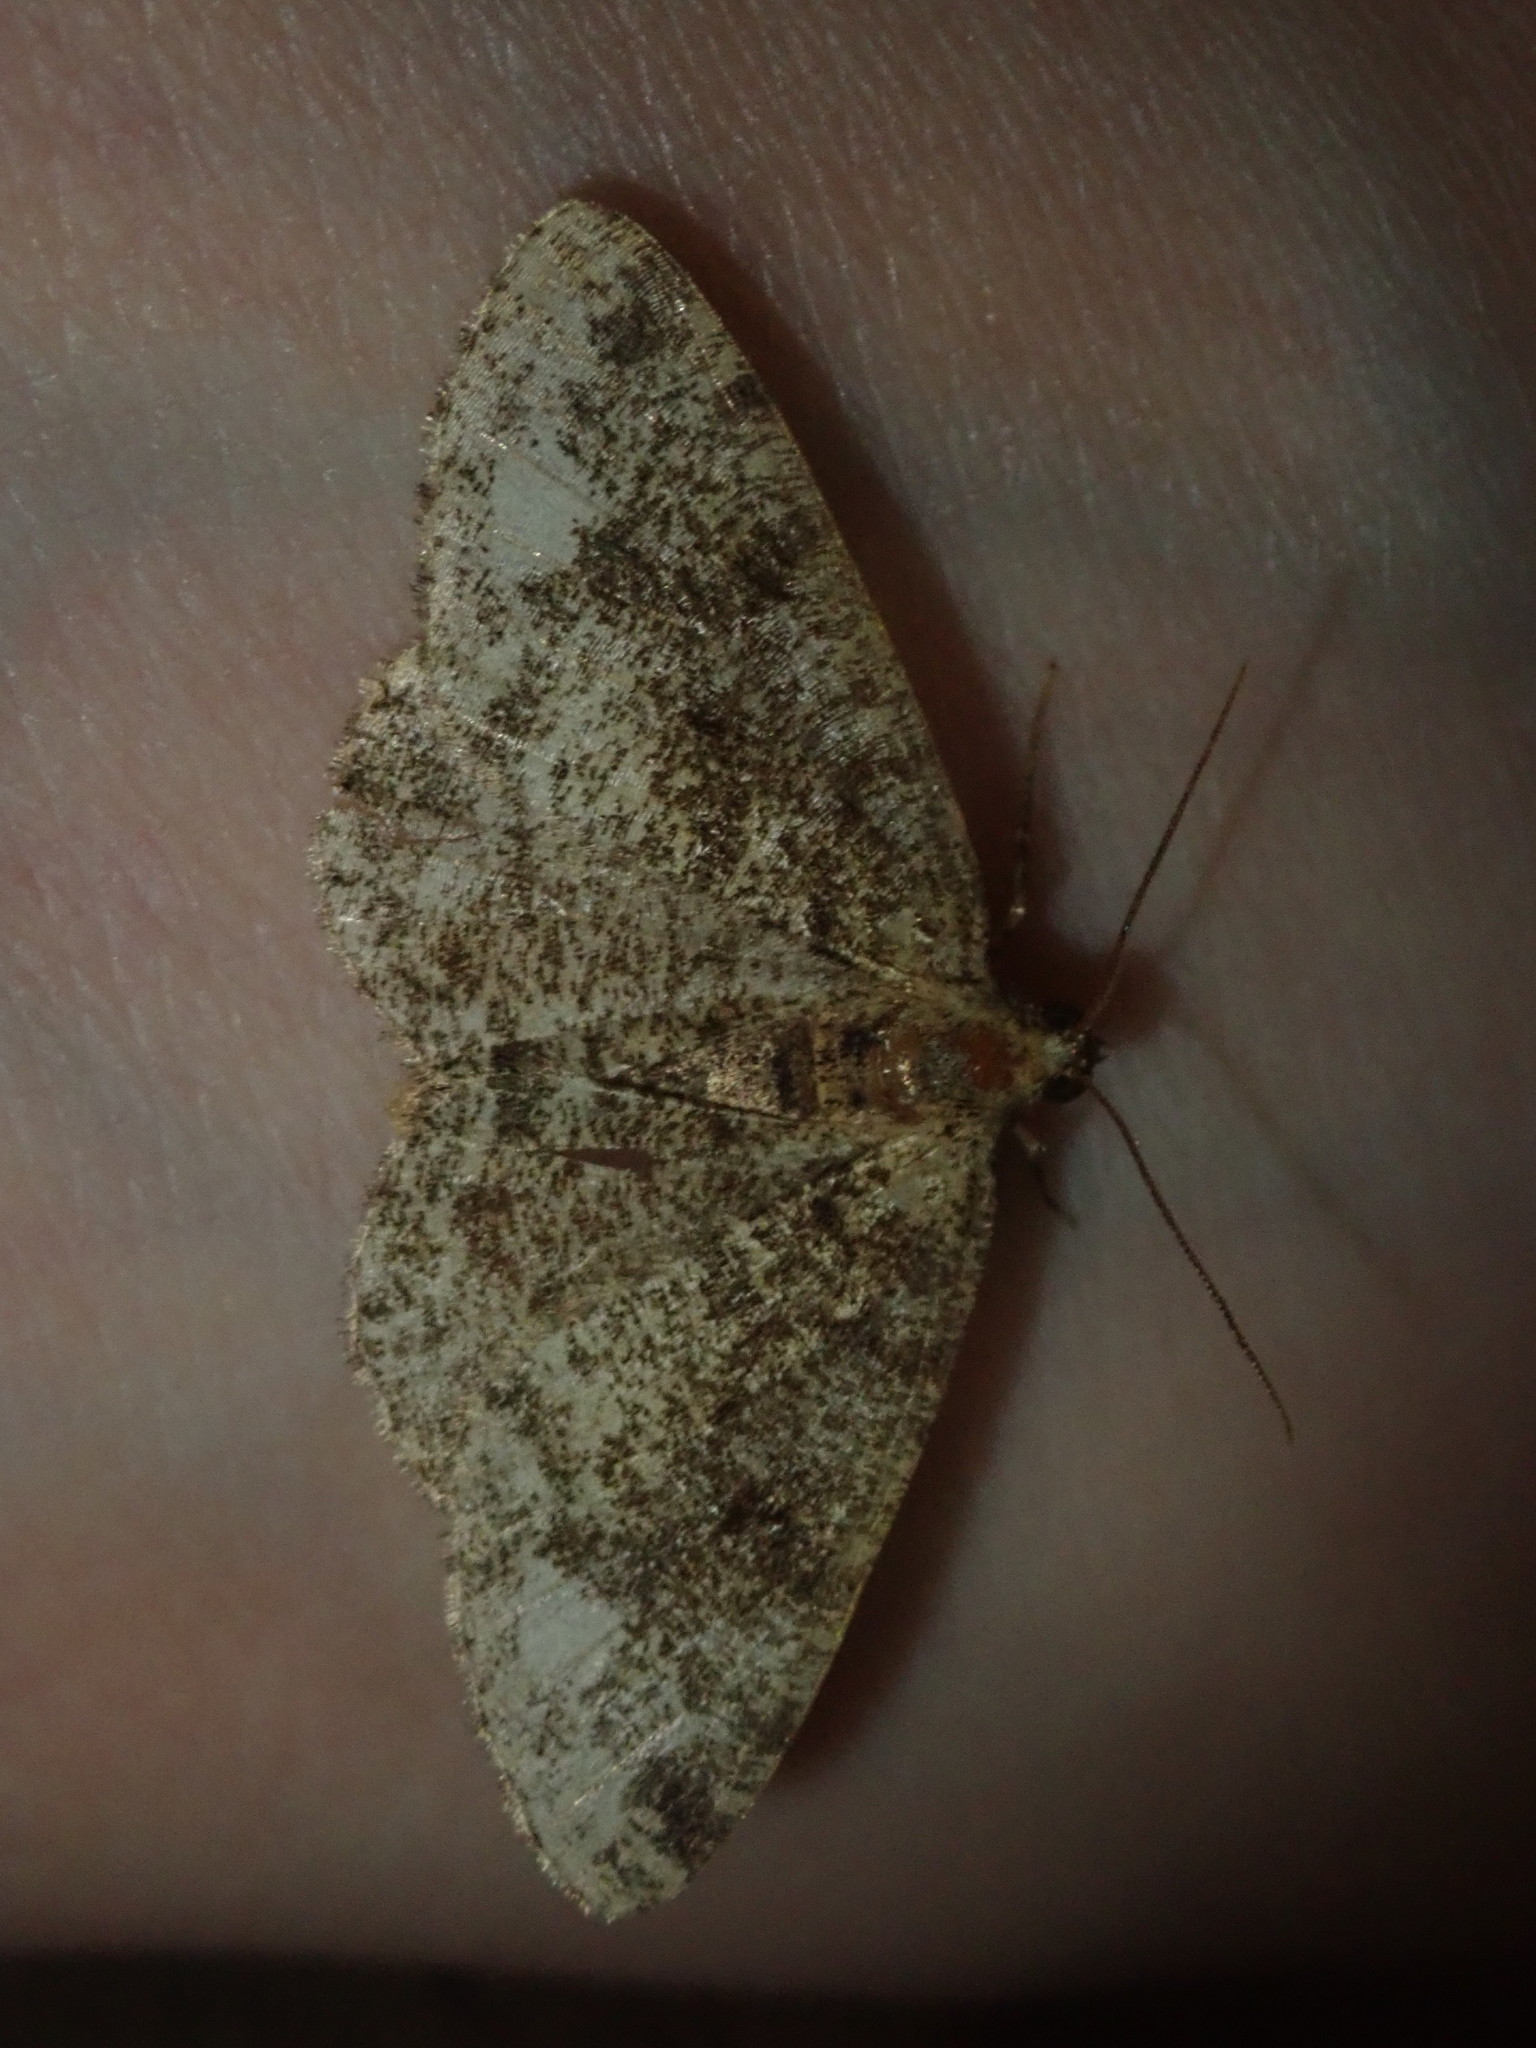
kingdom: Animalia
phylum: Arthropoda
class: Insecta
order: Lepidoptera
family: Geometridae
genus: Parectropis
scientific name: Parectropis similaria
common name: Brindled white-spot
